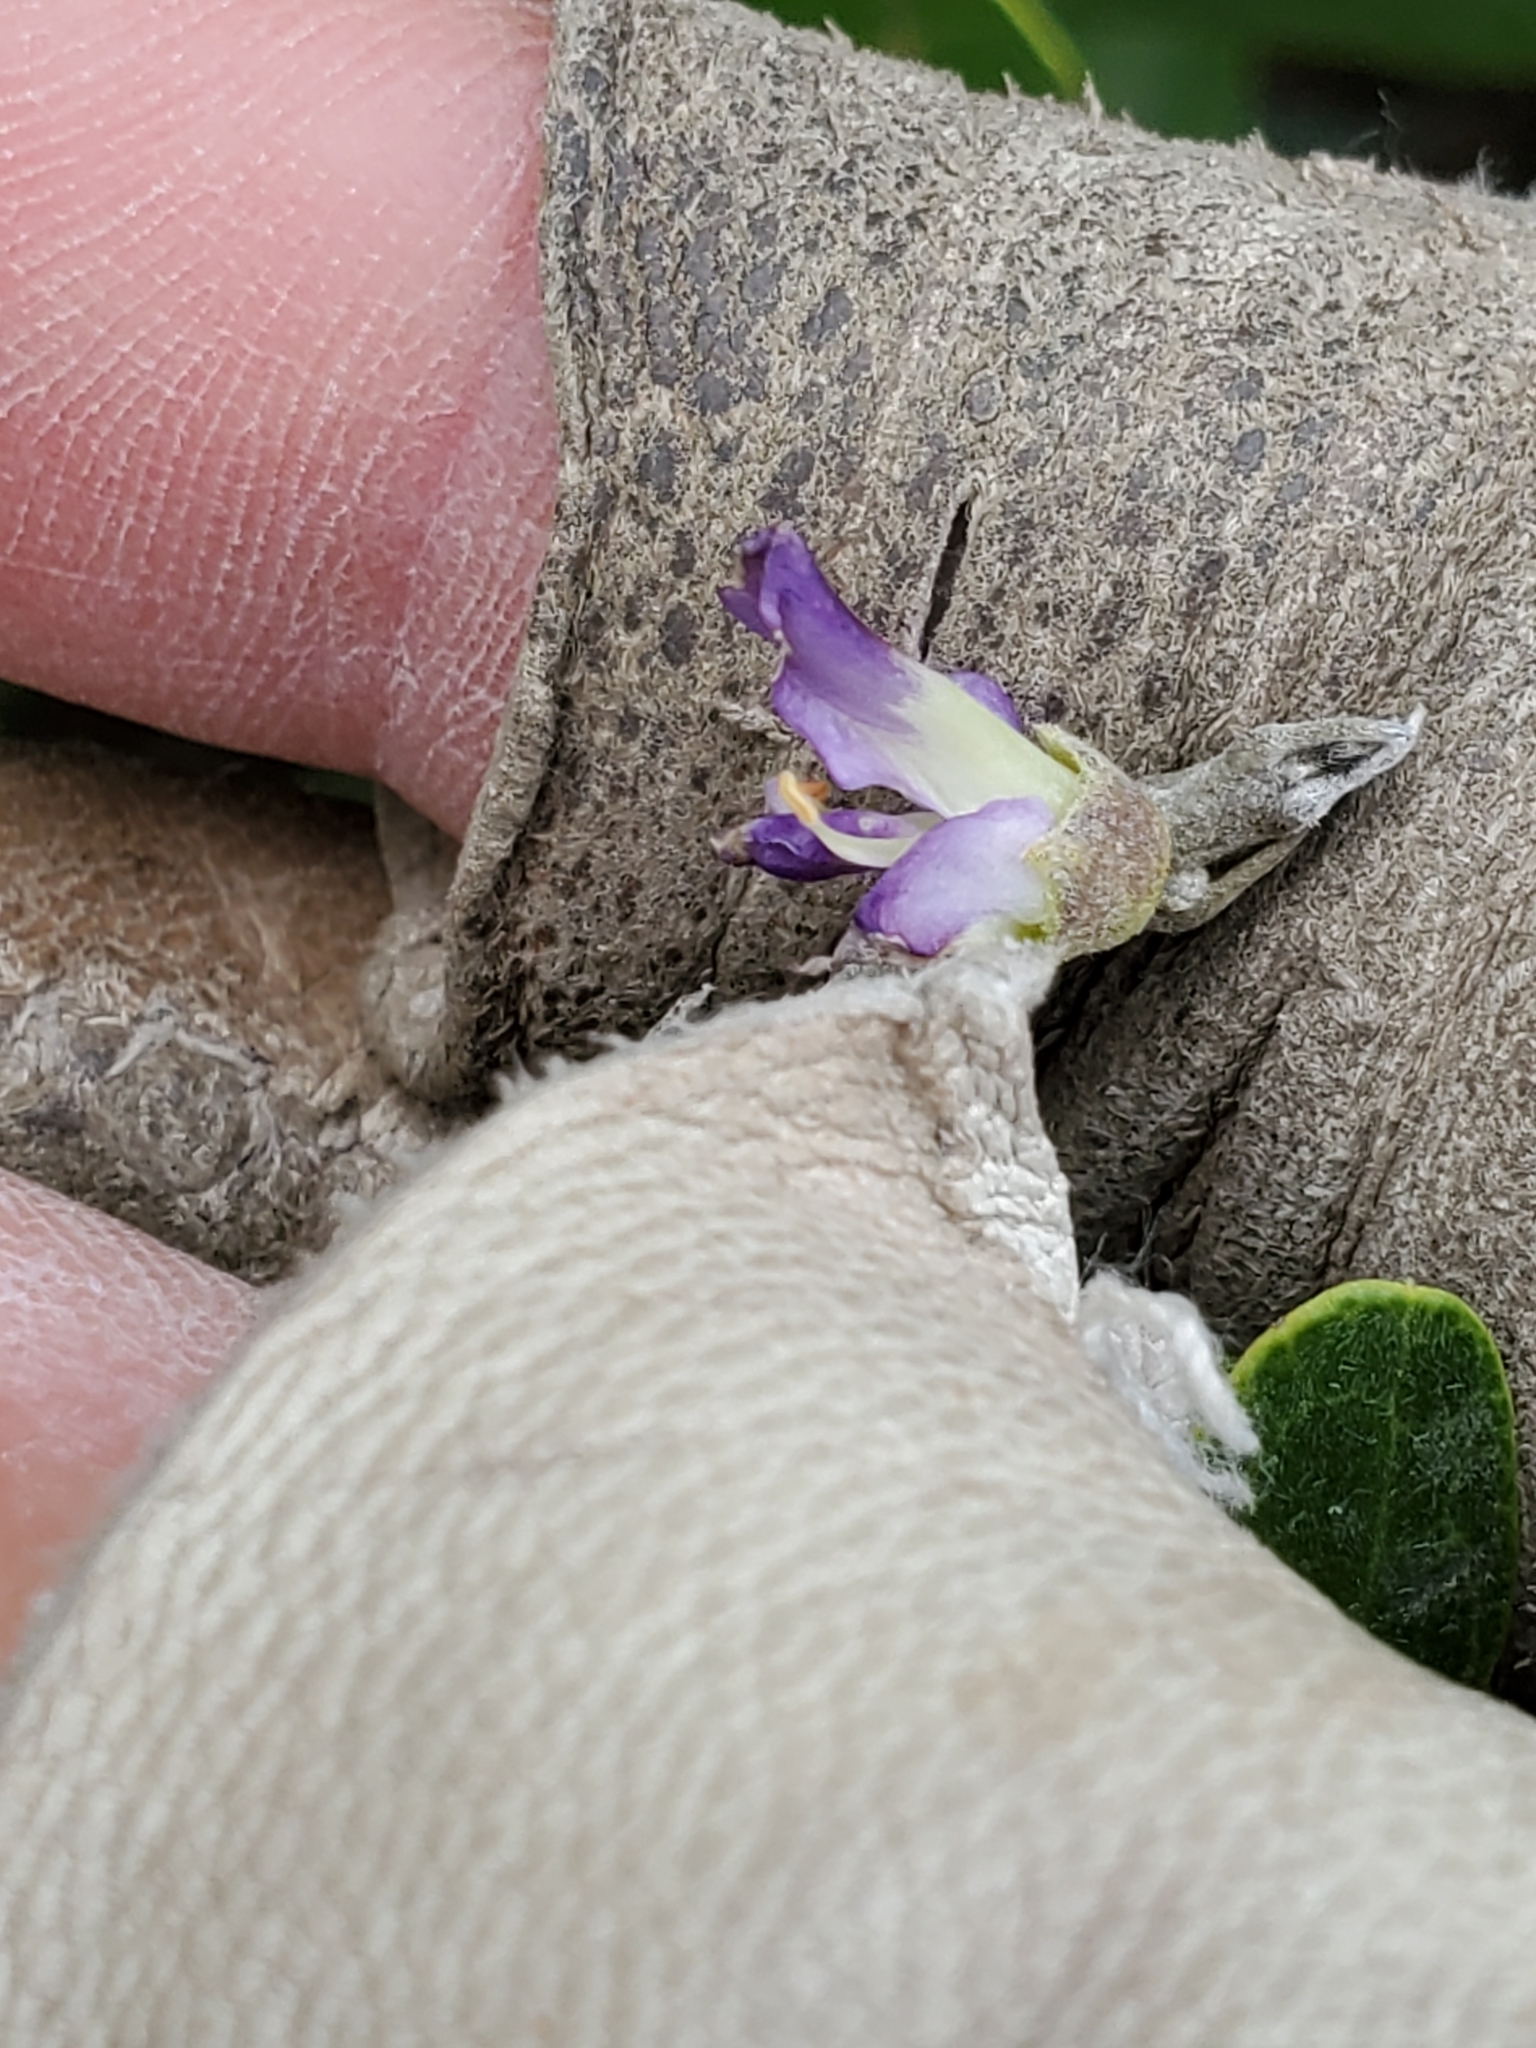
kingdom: Plantae
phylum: Tracheophyta
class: Magnoliopsida
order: Fabales
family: Fabaceae
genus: Dermatophyllum
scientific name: Dermatophyllum secundiflorum
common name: Texas-mountain-laurel
